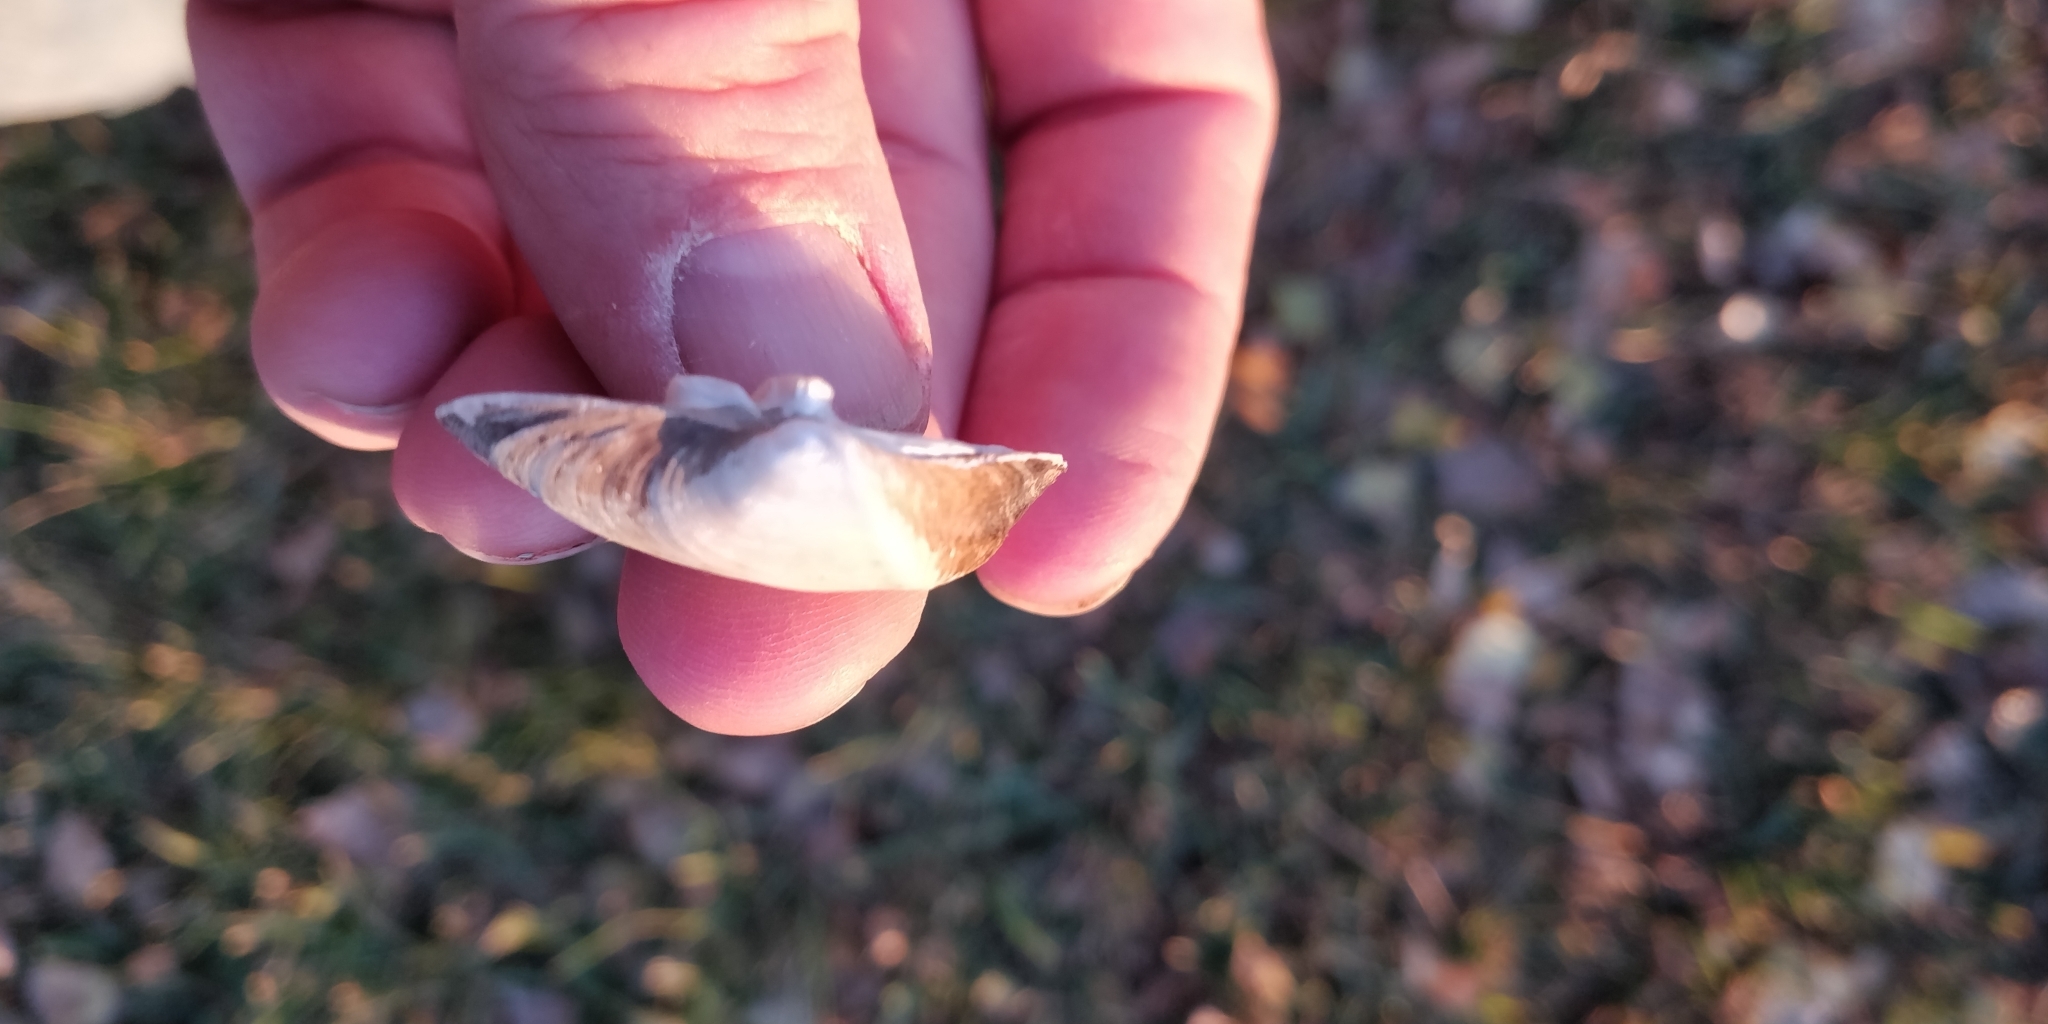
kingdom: Animalia
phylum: Mollusca
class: Bivalvia
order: Unionida
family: Unionidae
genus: Truncilla
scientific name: Truncilla truncata
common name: Deertoe
